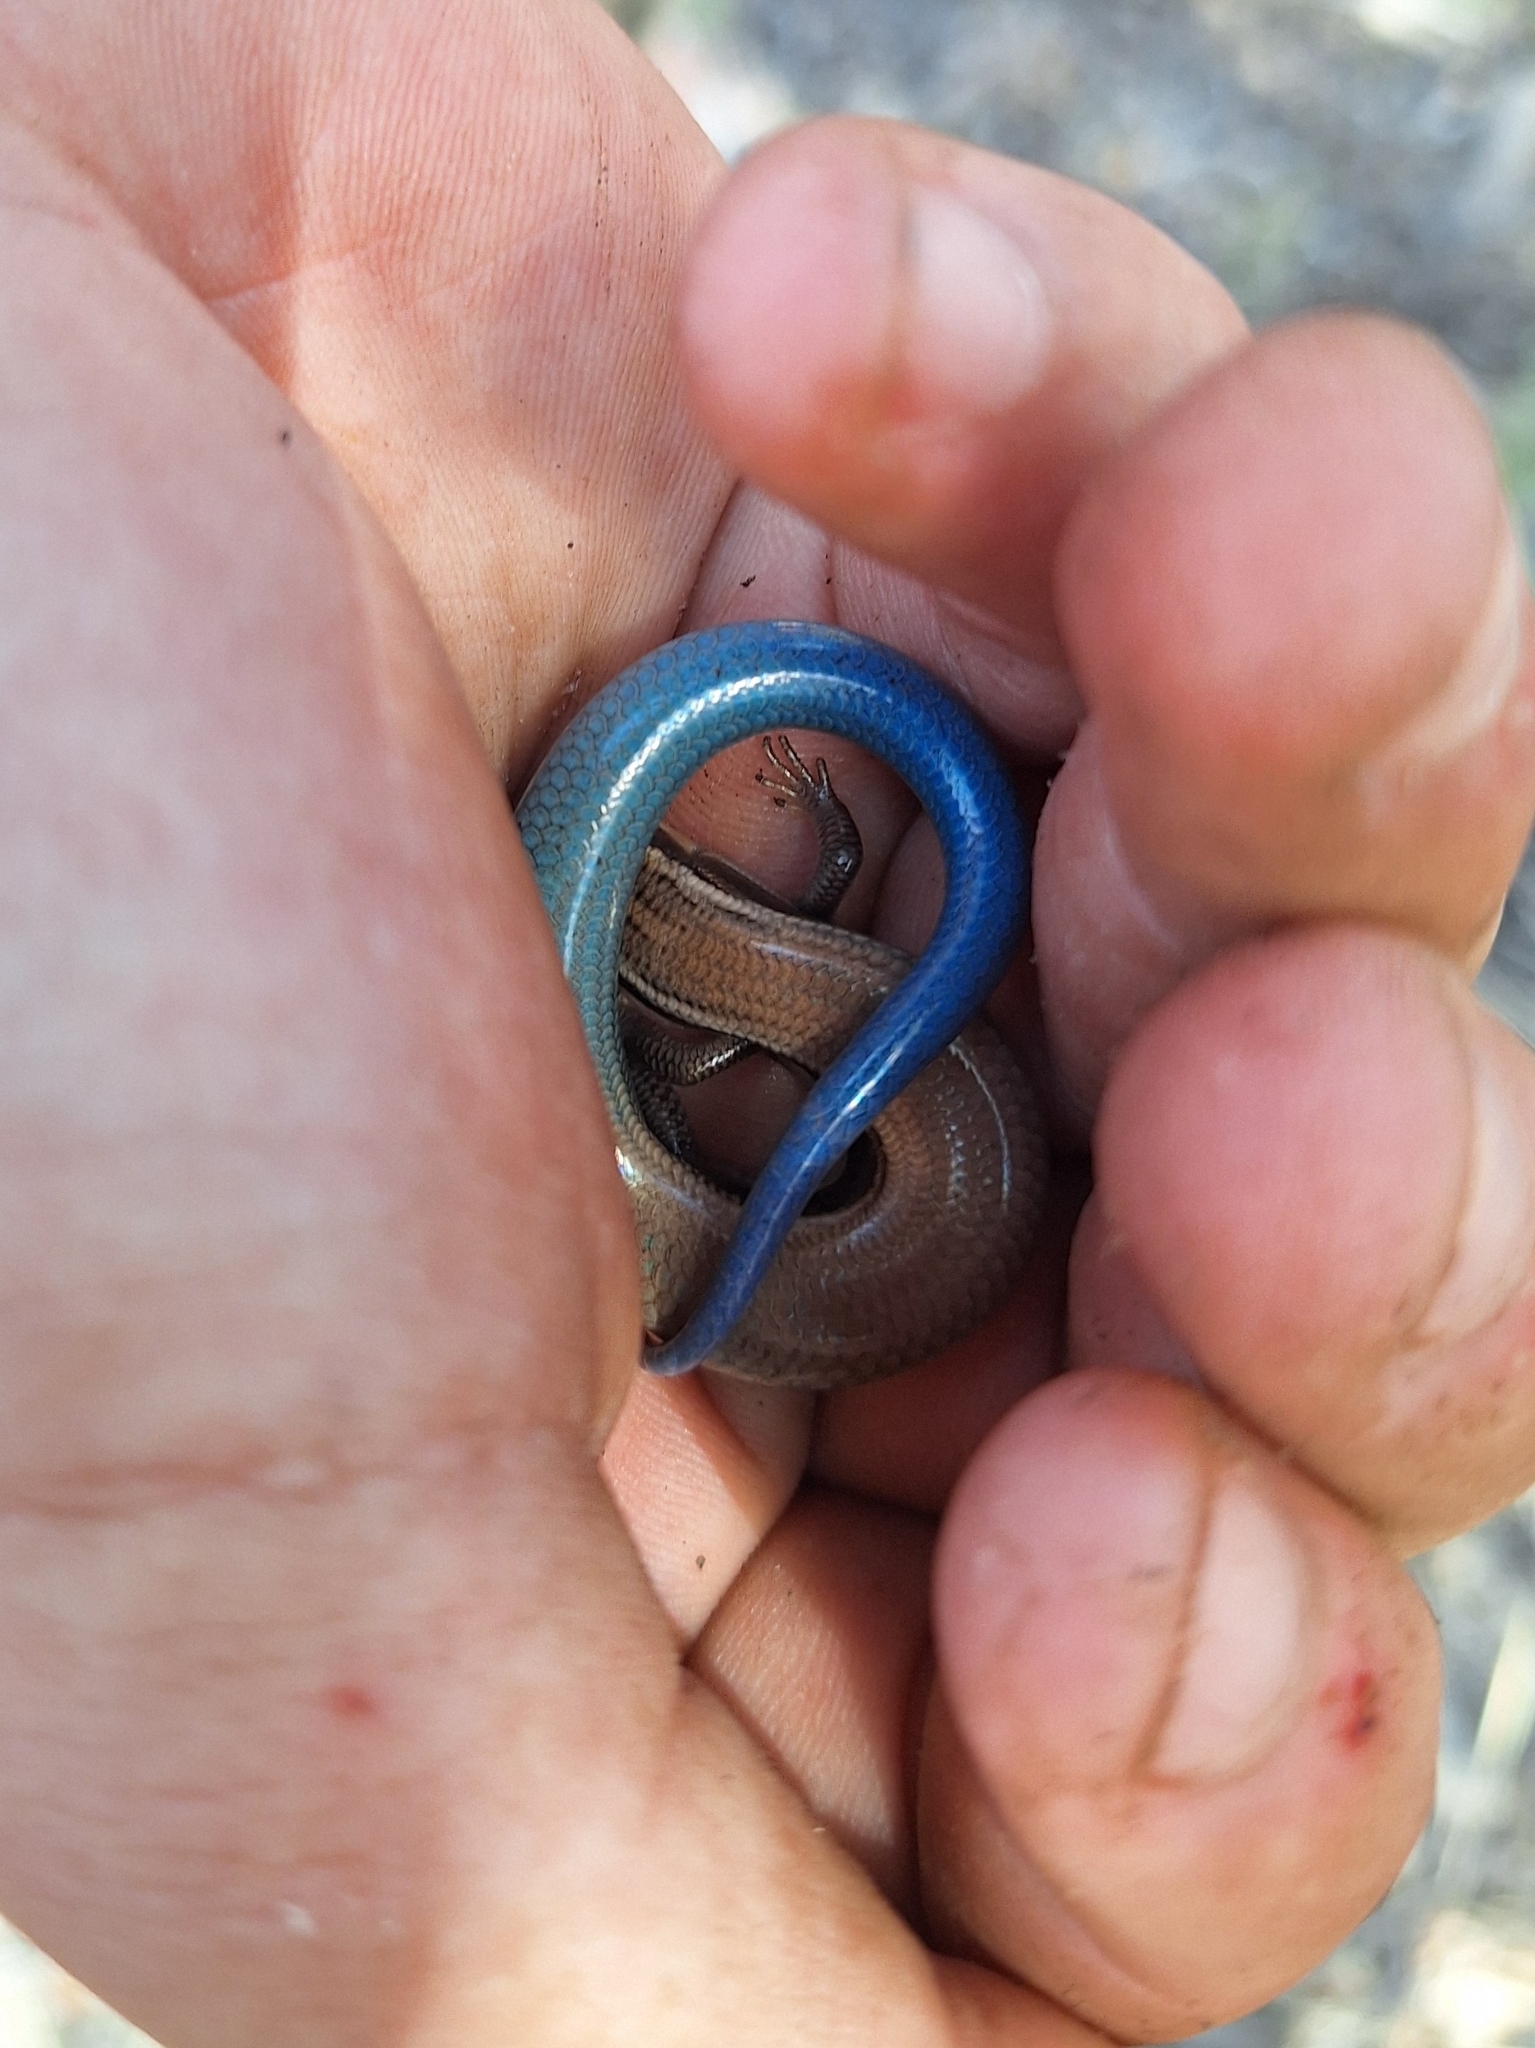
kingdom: Animalia
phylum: Chordata
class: Squamata
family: Scincidae
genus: Plestiodon
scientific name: Plestiodon callicephalus
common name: Mountain skink
